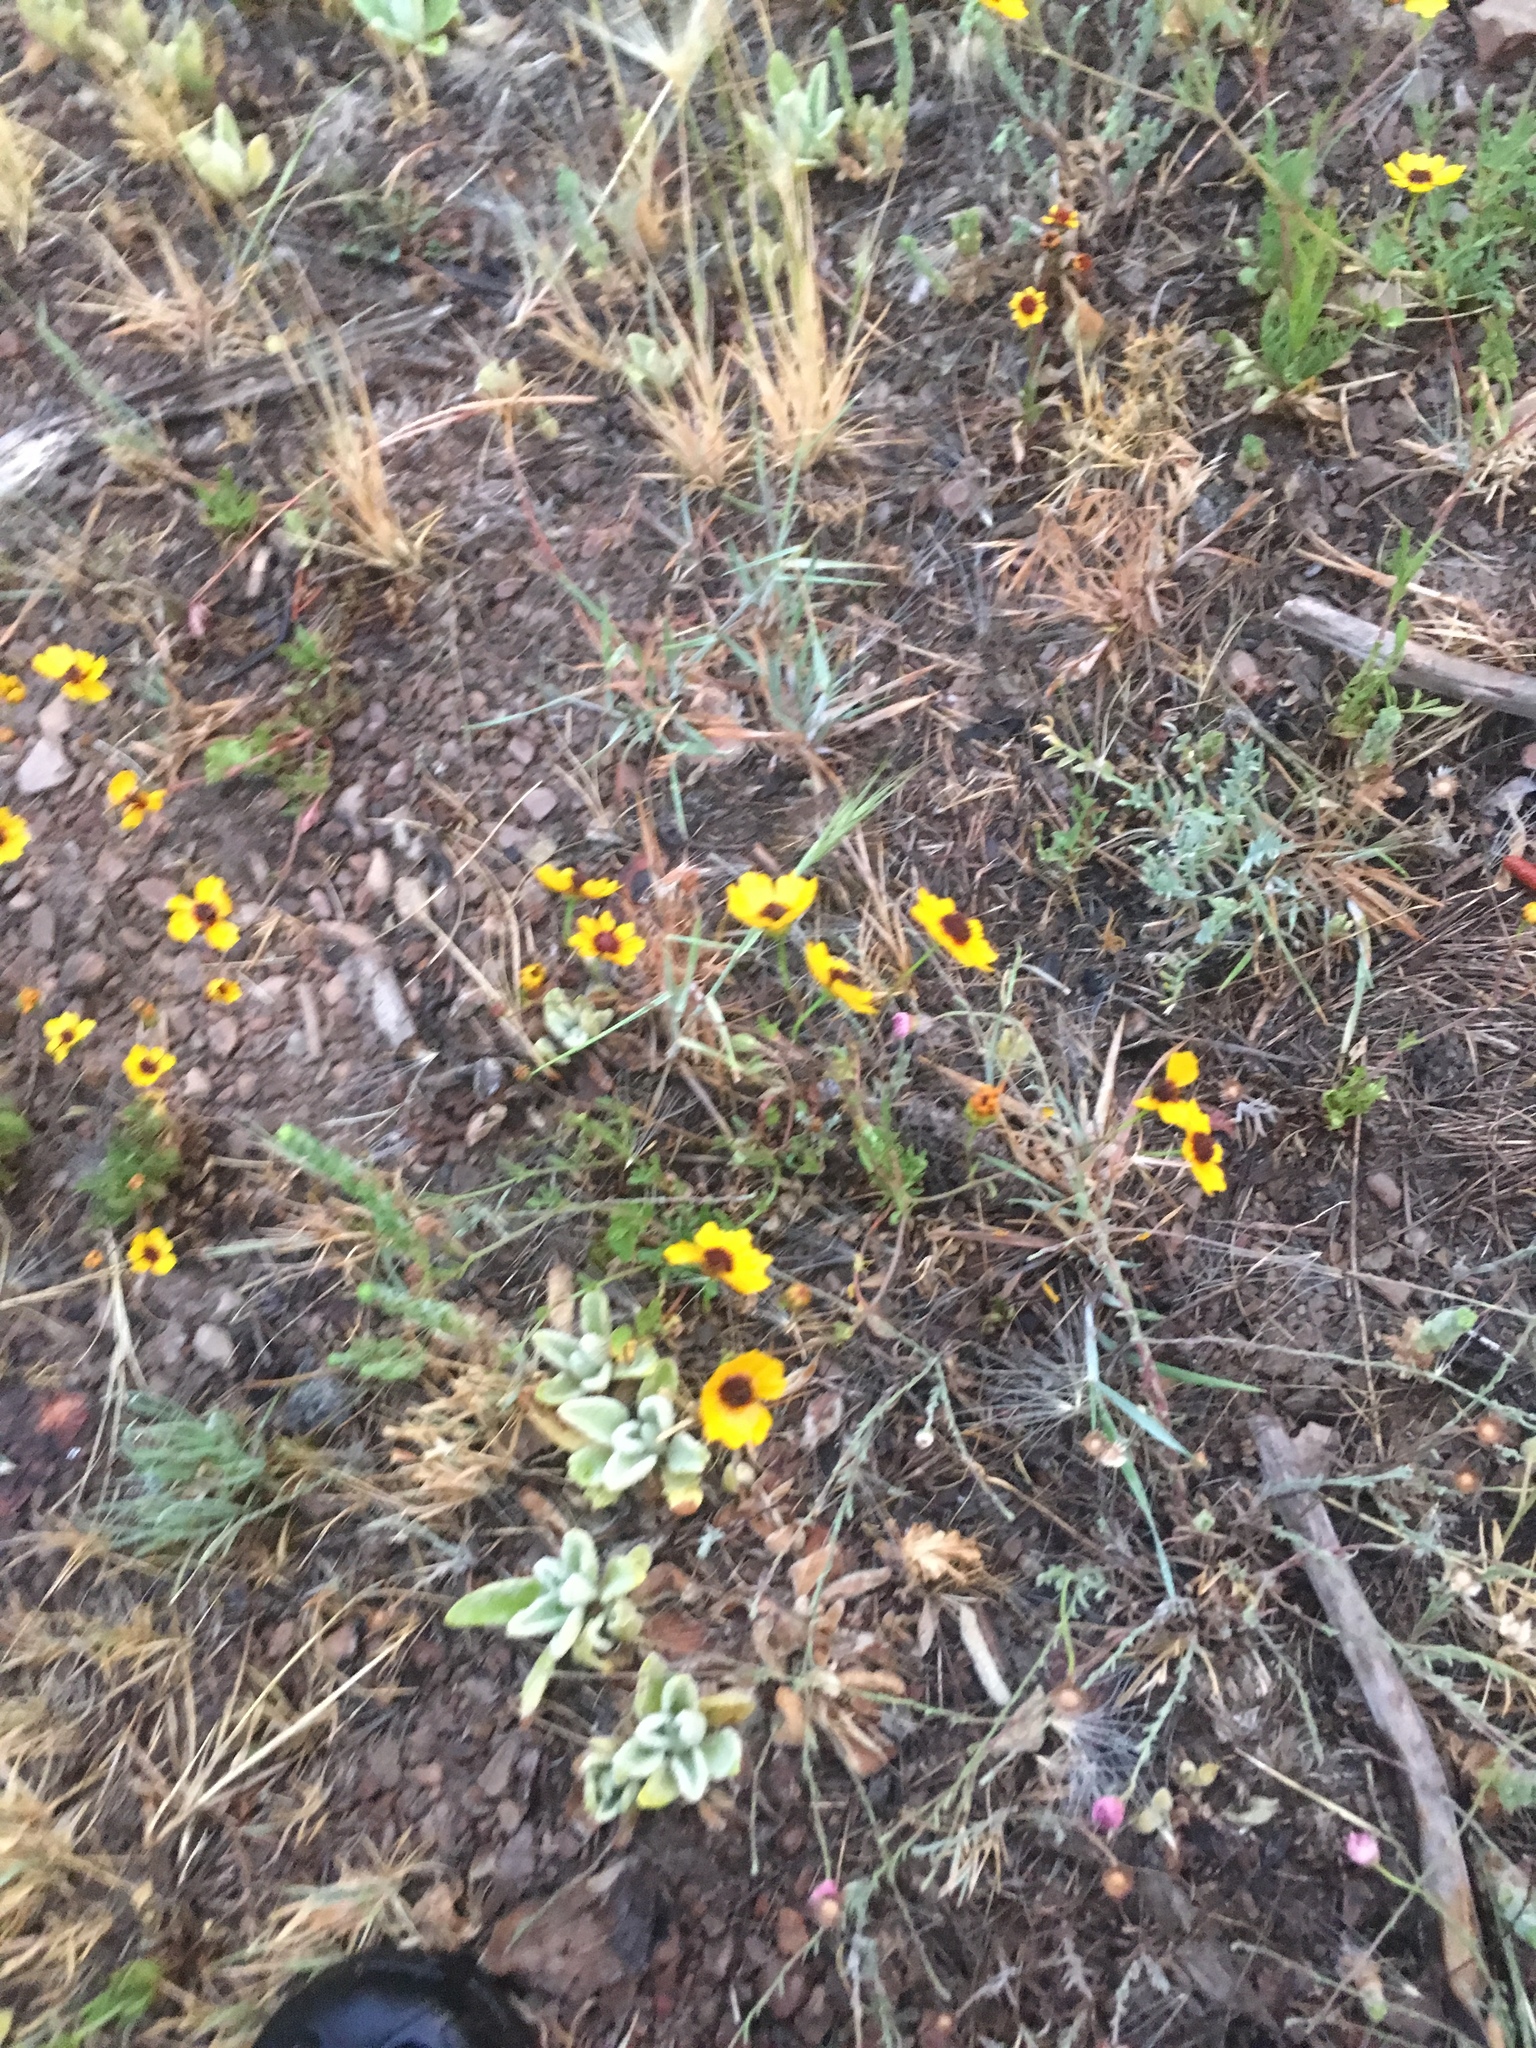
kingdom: Plantae
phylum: Tracheophyta
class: Magnoliopsida
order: Asterales
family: Asteraceae
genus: Coreopsis
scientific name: Coreopsis tinctoria
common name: Garden tickseed
